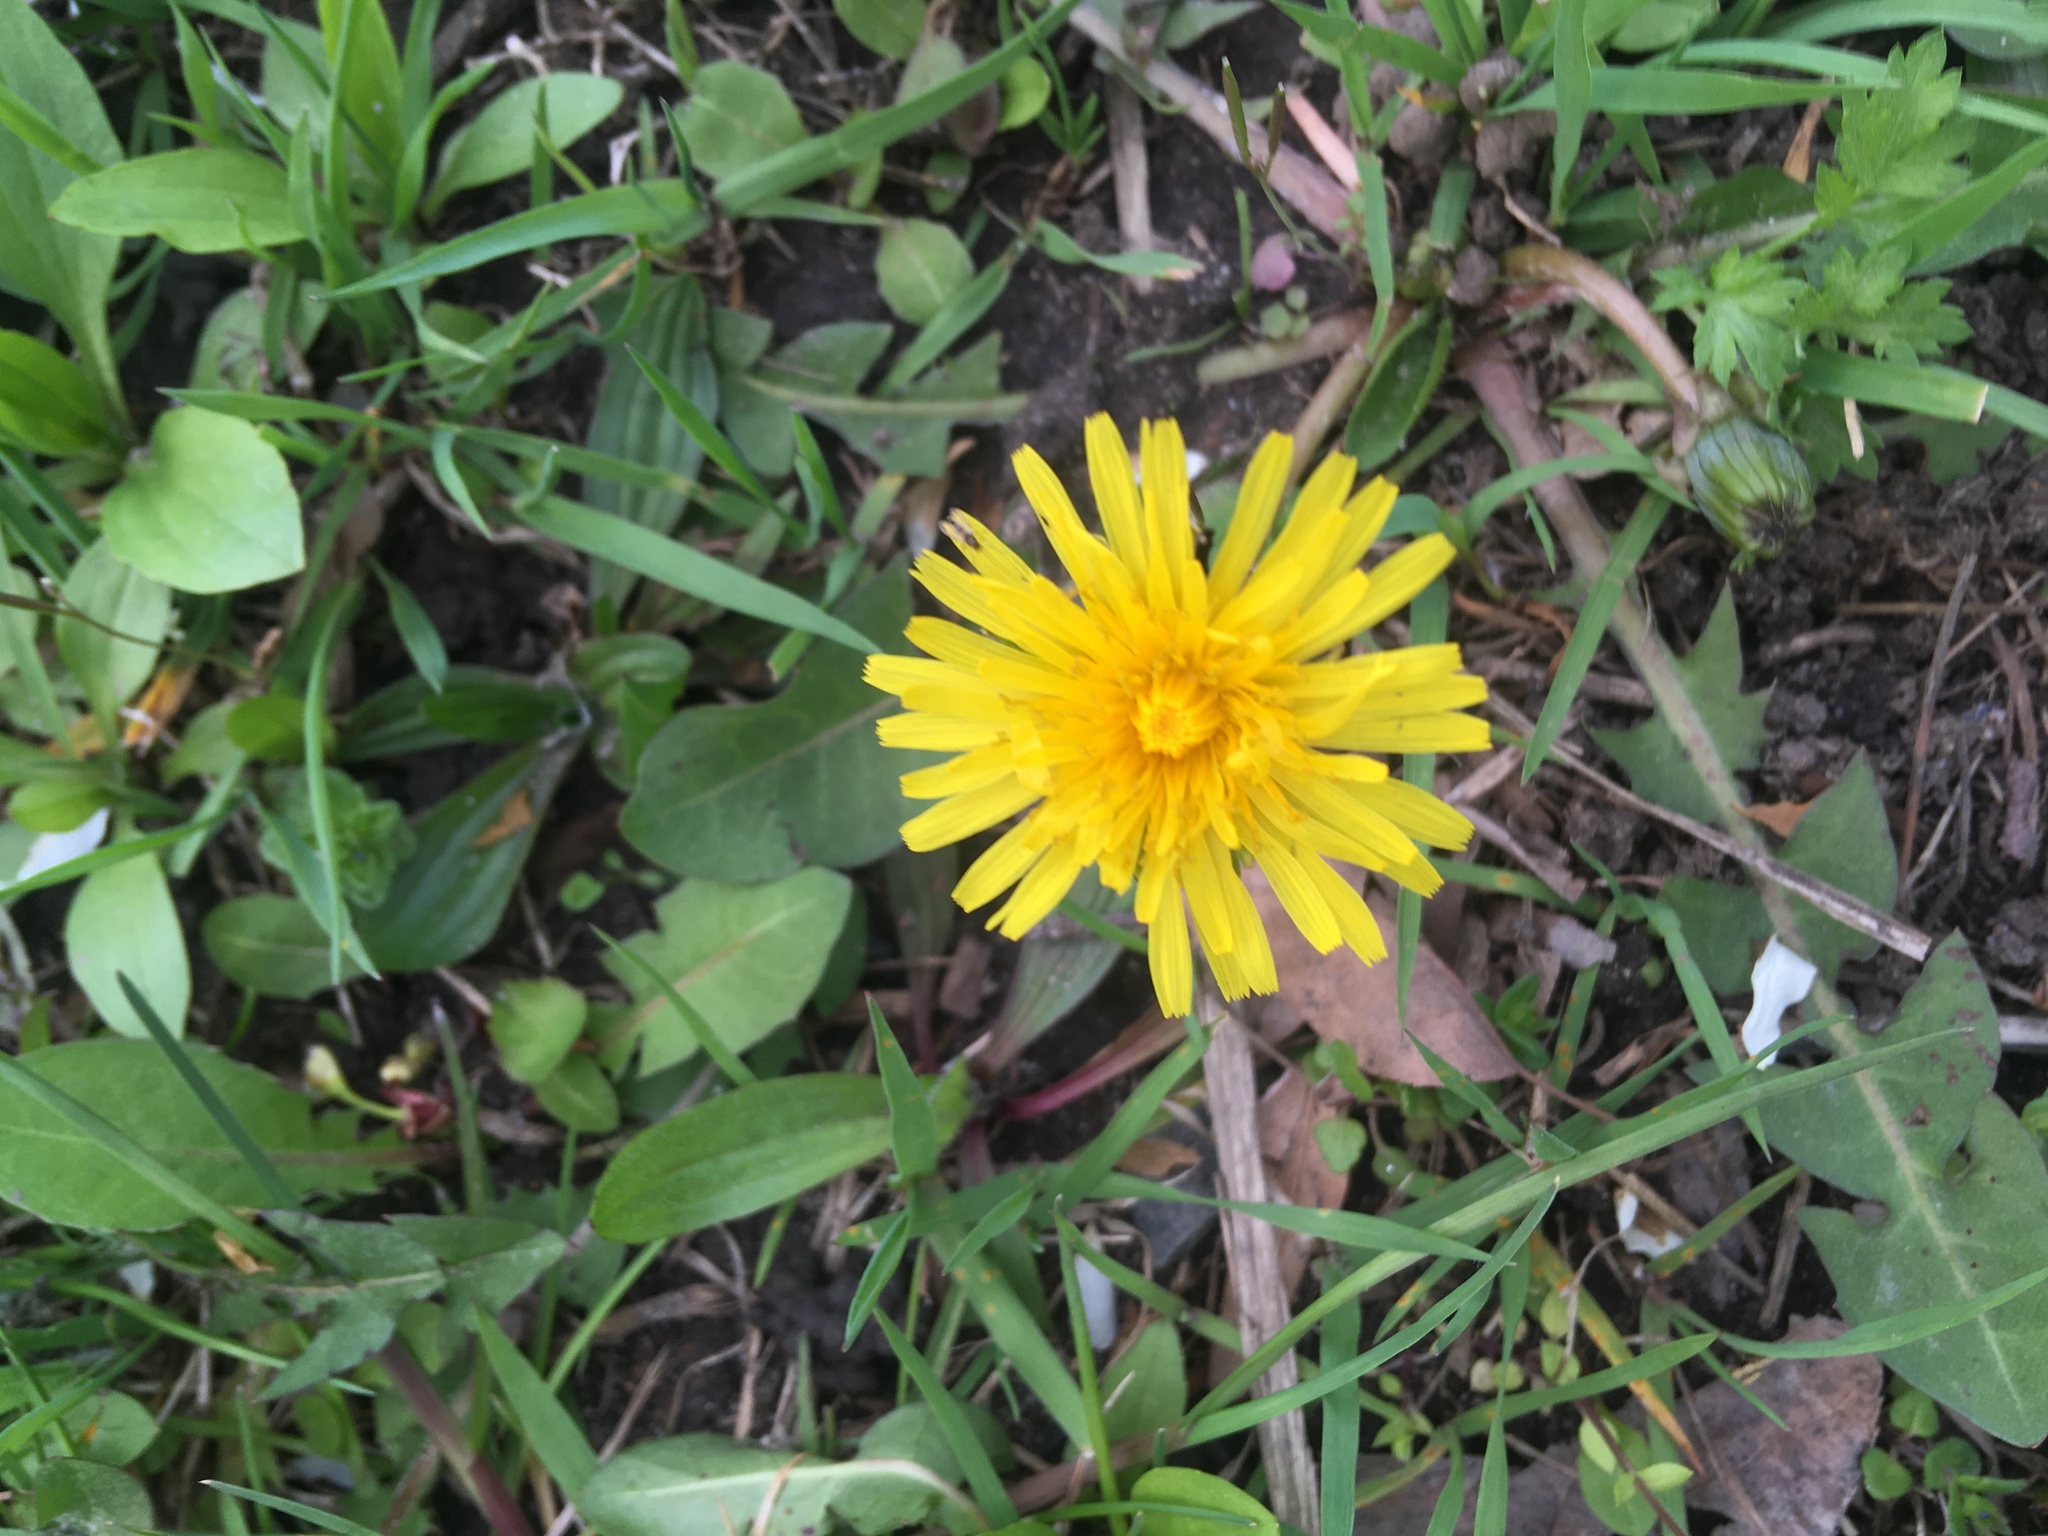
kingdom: Plantae
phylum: Tracheophyta
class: Magnoliopsida
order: Asterales
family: Asteraceae
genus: Taraxacum
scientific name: Taraxacum officinale
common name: Common dandelion
